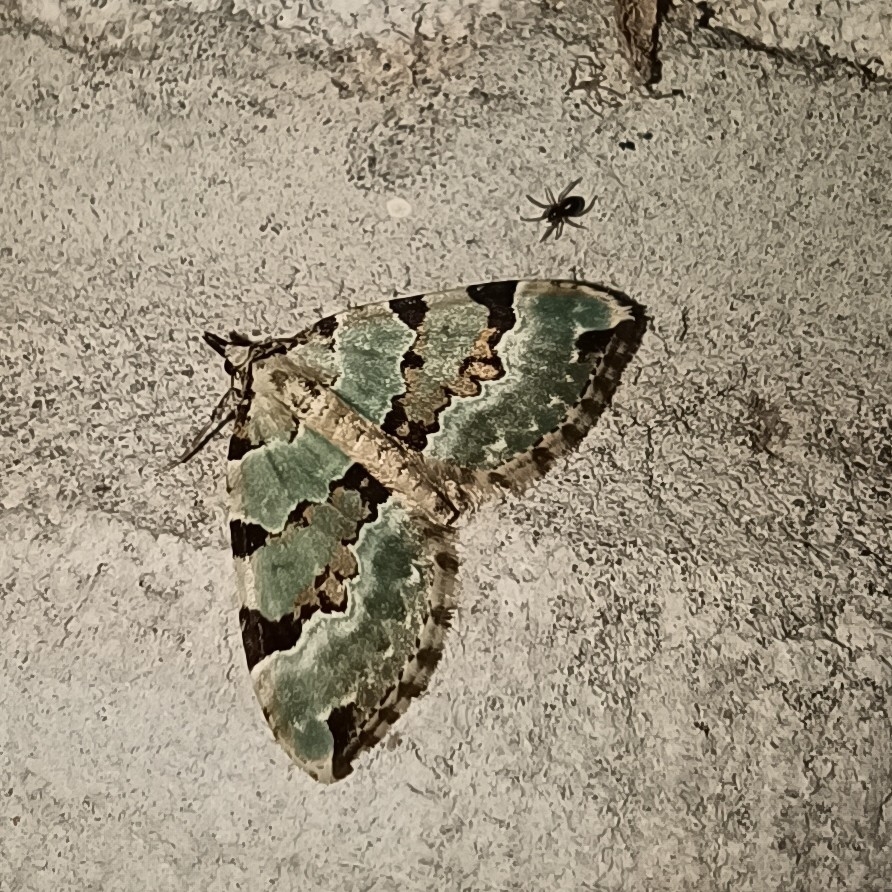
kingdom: Animalia
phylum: Arthropoda
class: Insecta
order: Lepidoptera
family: Geometridae
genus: Colostygia
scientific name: Colostygia pectinataria
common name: Green carpet
